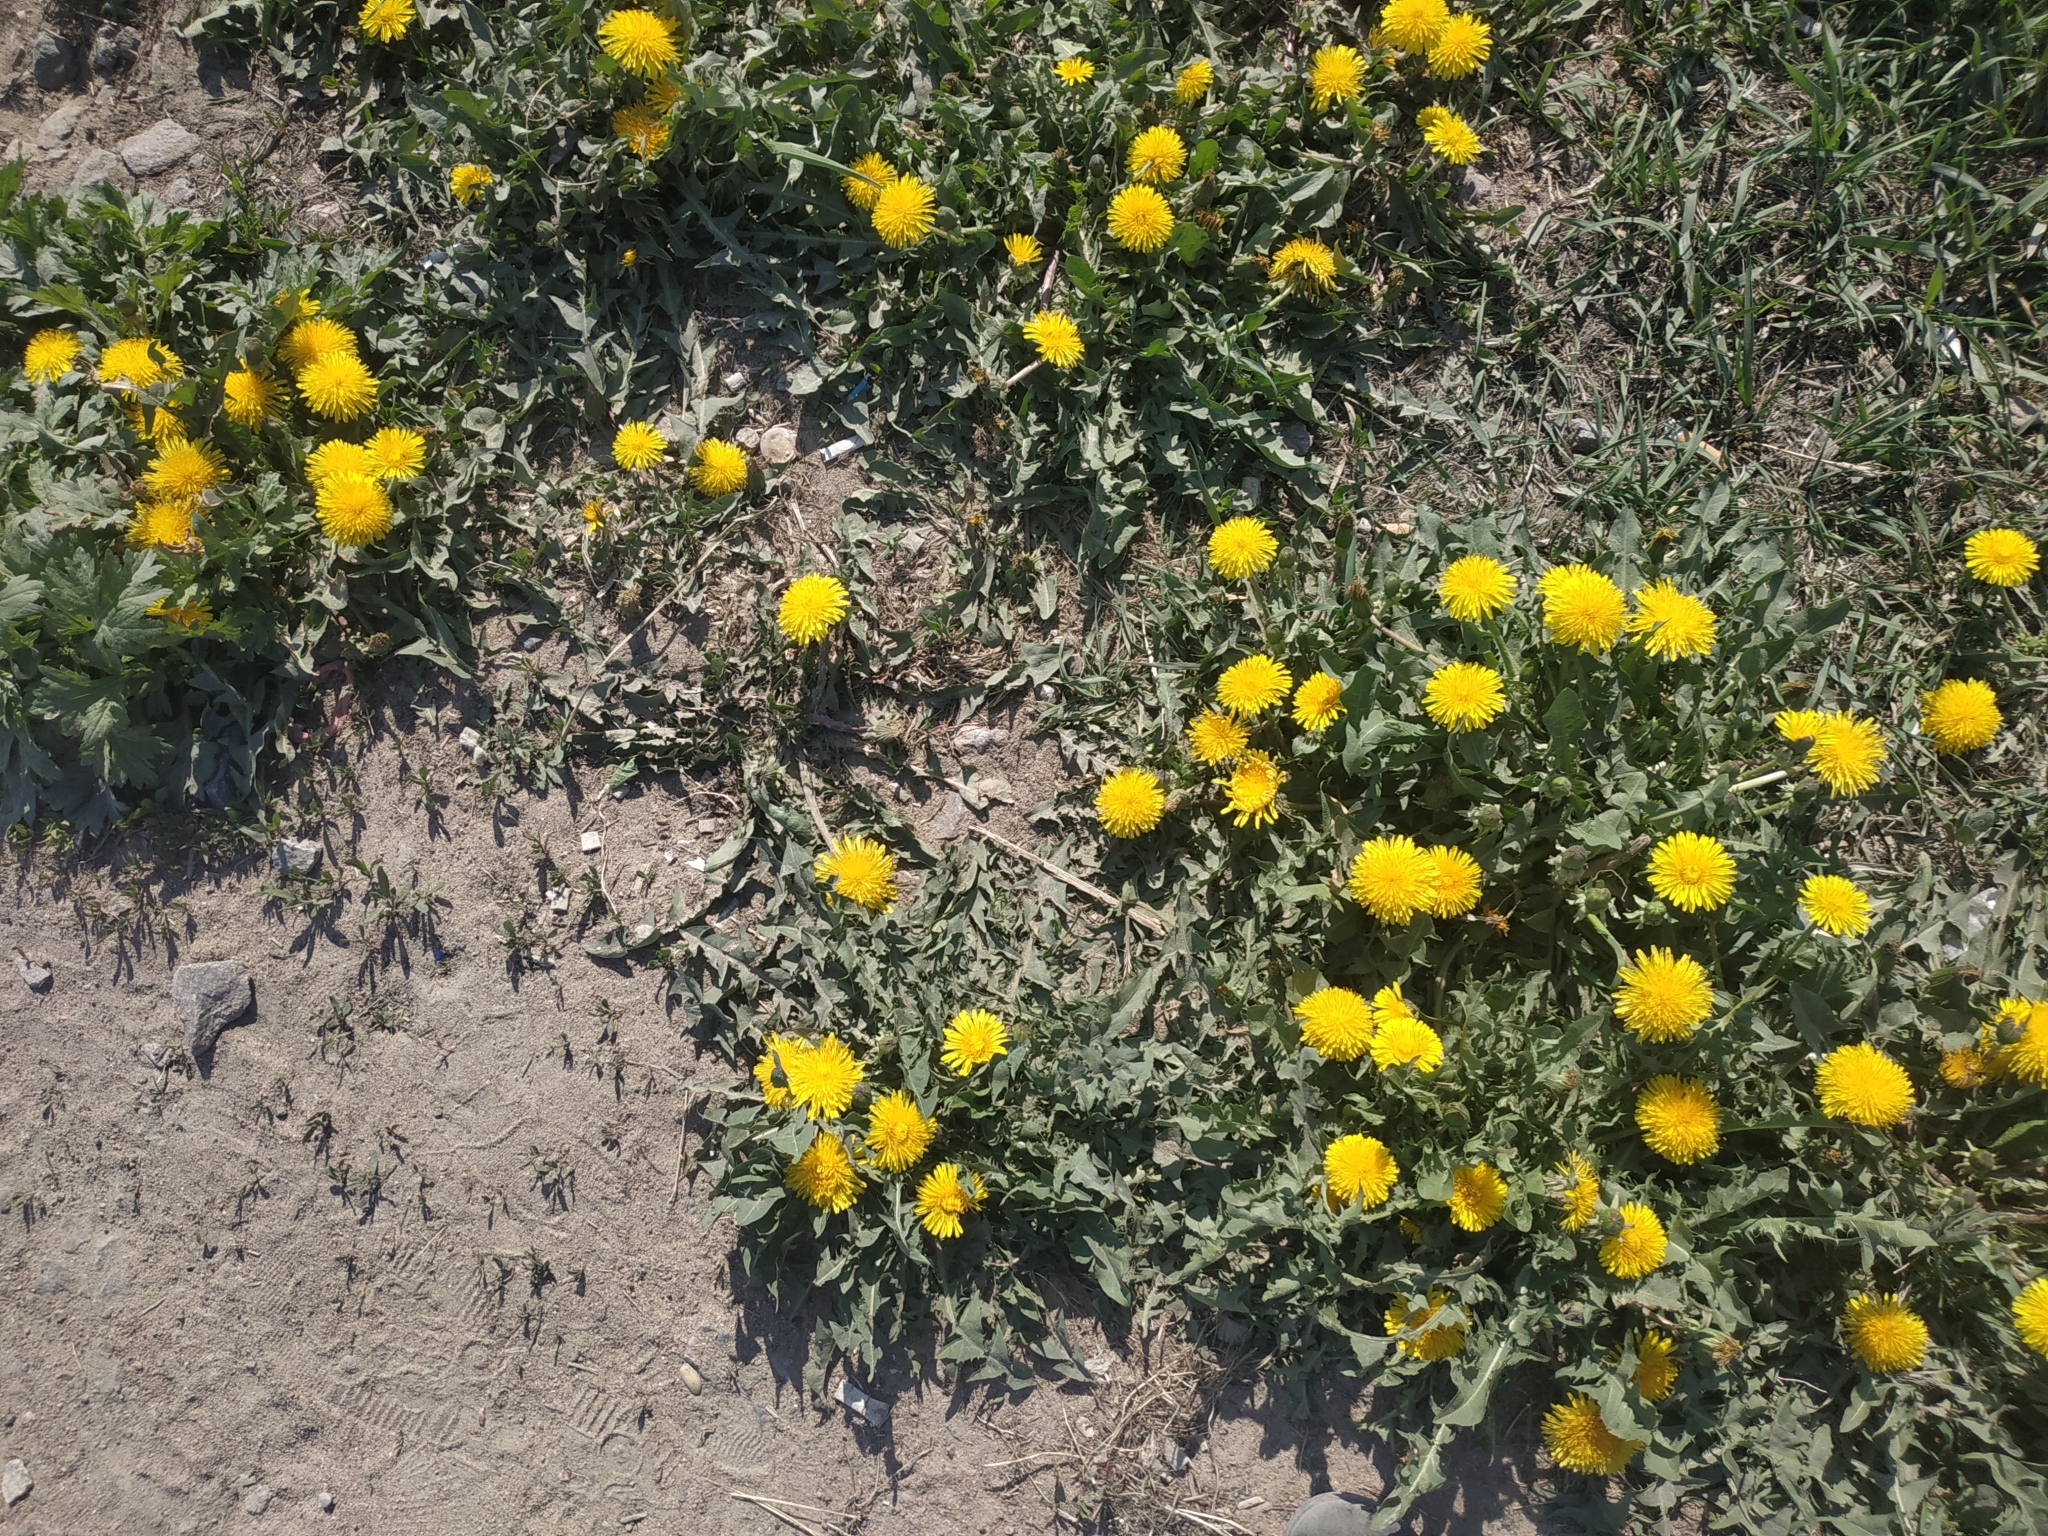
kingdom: Plantae
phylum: Tracheophyta
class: Magnoliopsida
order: Asterales
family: Asteraceae
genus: Taraxacum
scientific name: Taraxacum officinale
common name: Common dandelion
